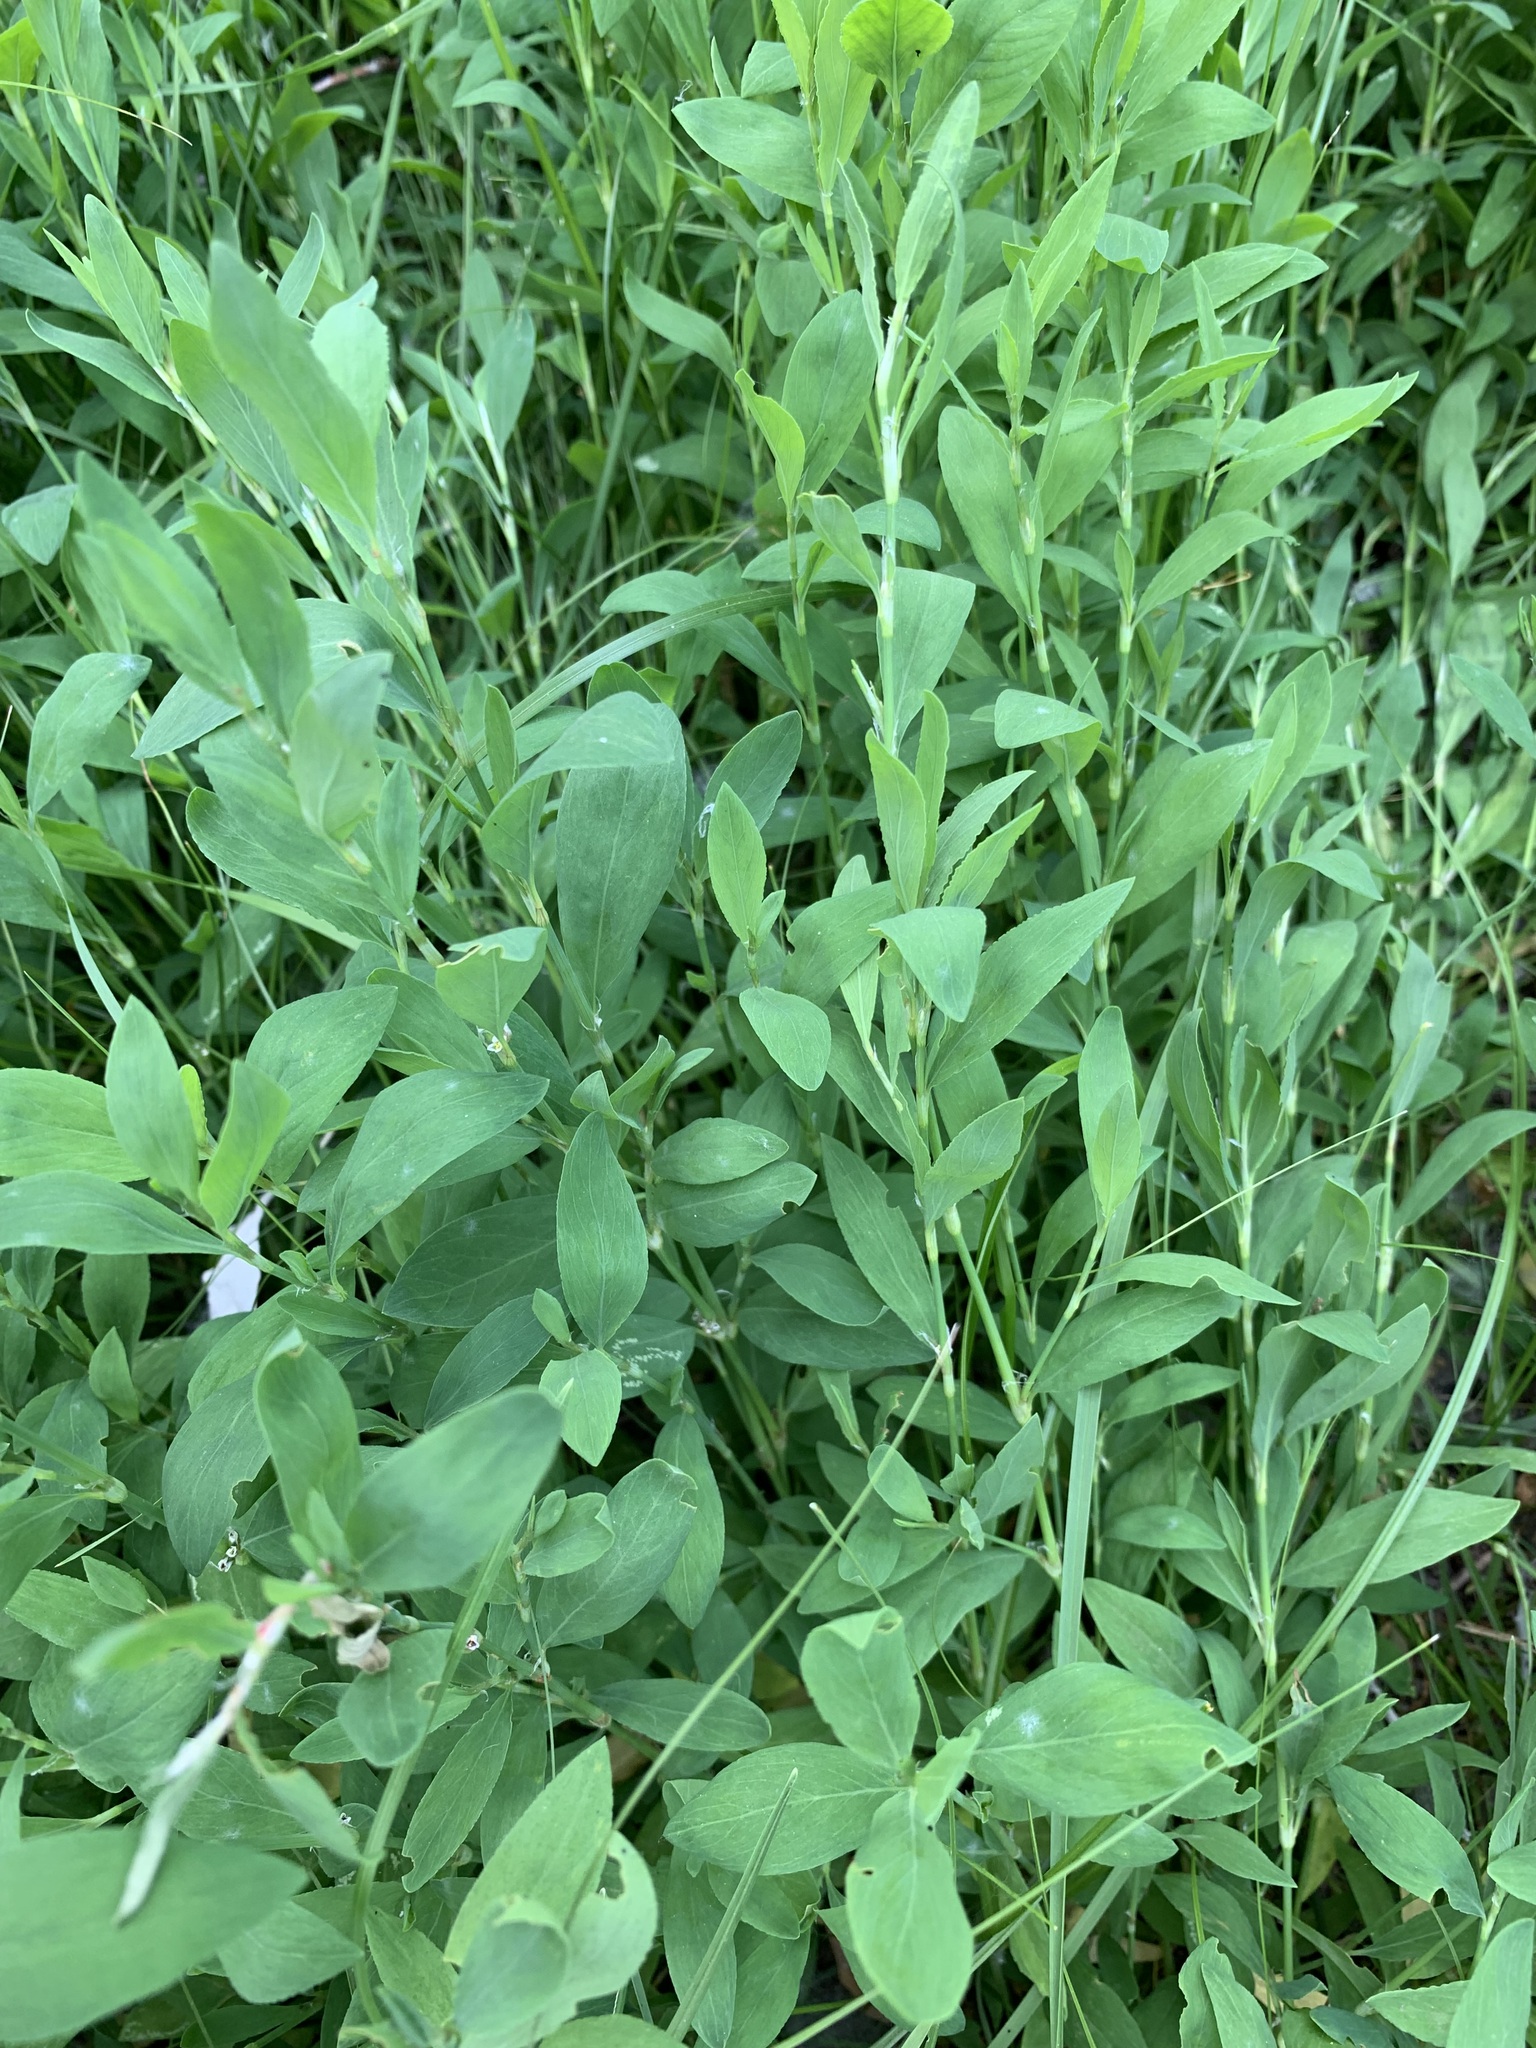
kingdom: Plantae
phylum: Tracheophyta
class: Magnoliopsida
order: Caryophyllales
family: Polygonaceae
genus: Polygonum
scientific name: Polygonum
